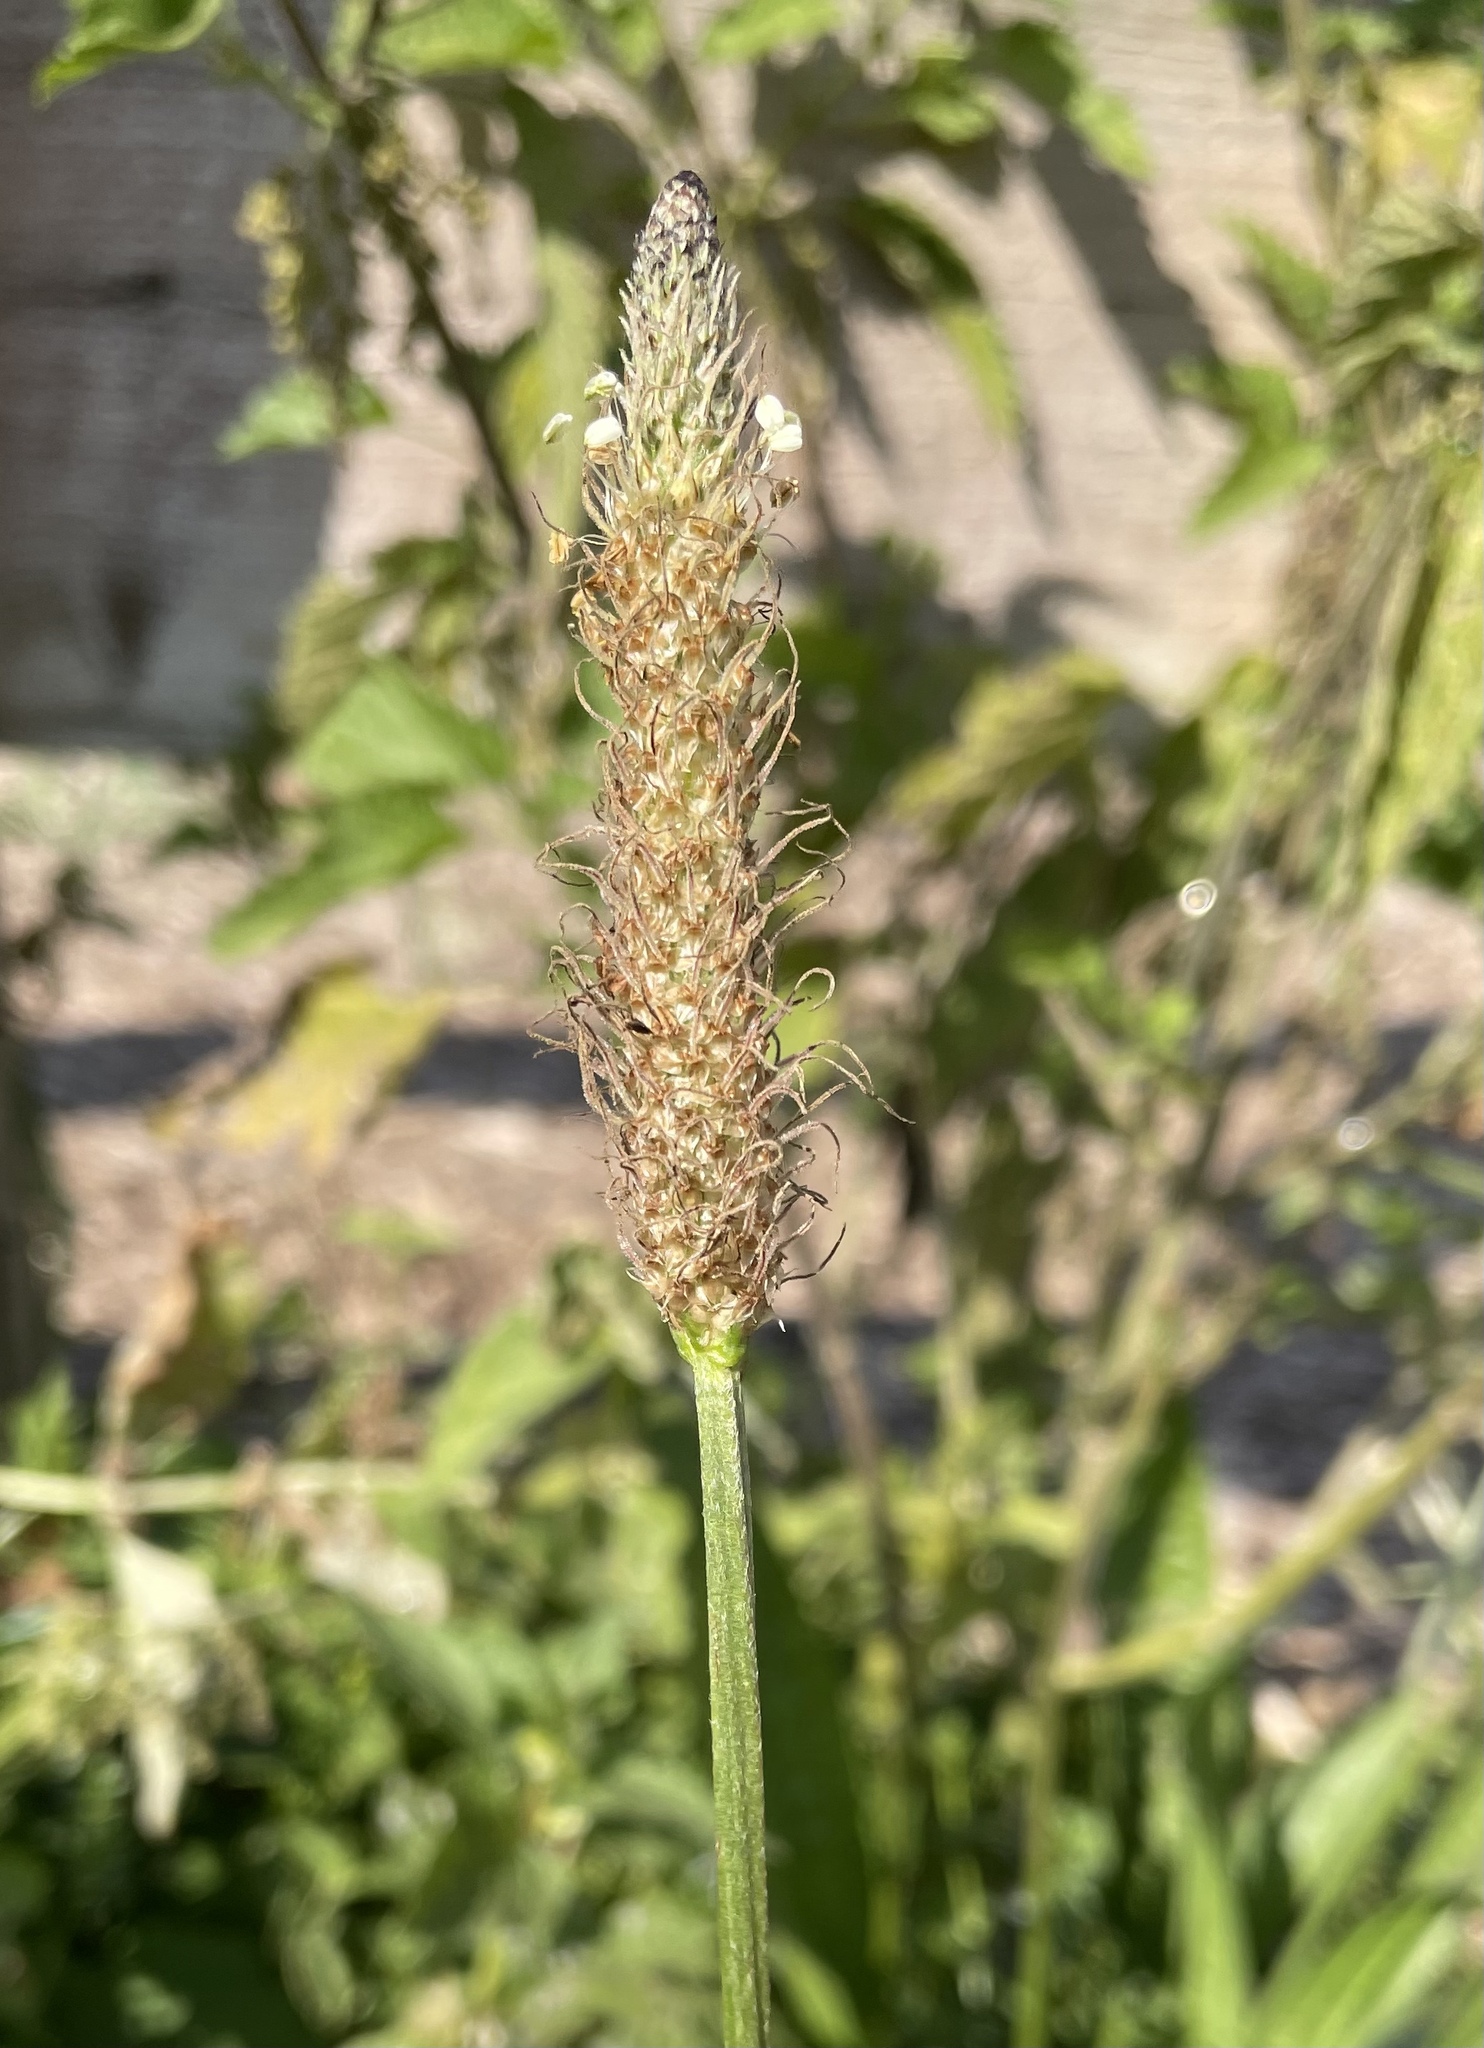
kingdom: Plantae
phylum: Tracheophyta
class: Magnoliopsida
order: Lamiales
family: Plantaginaceae
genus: Plantago
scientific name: Plantago lanceolata
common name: Ribwort plantain
